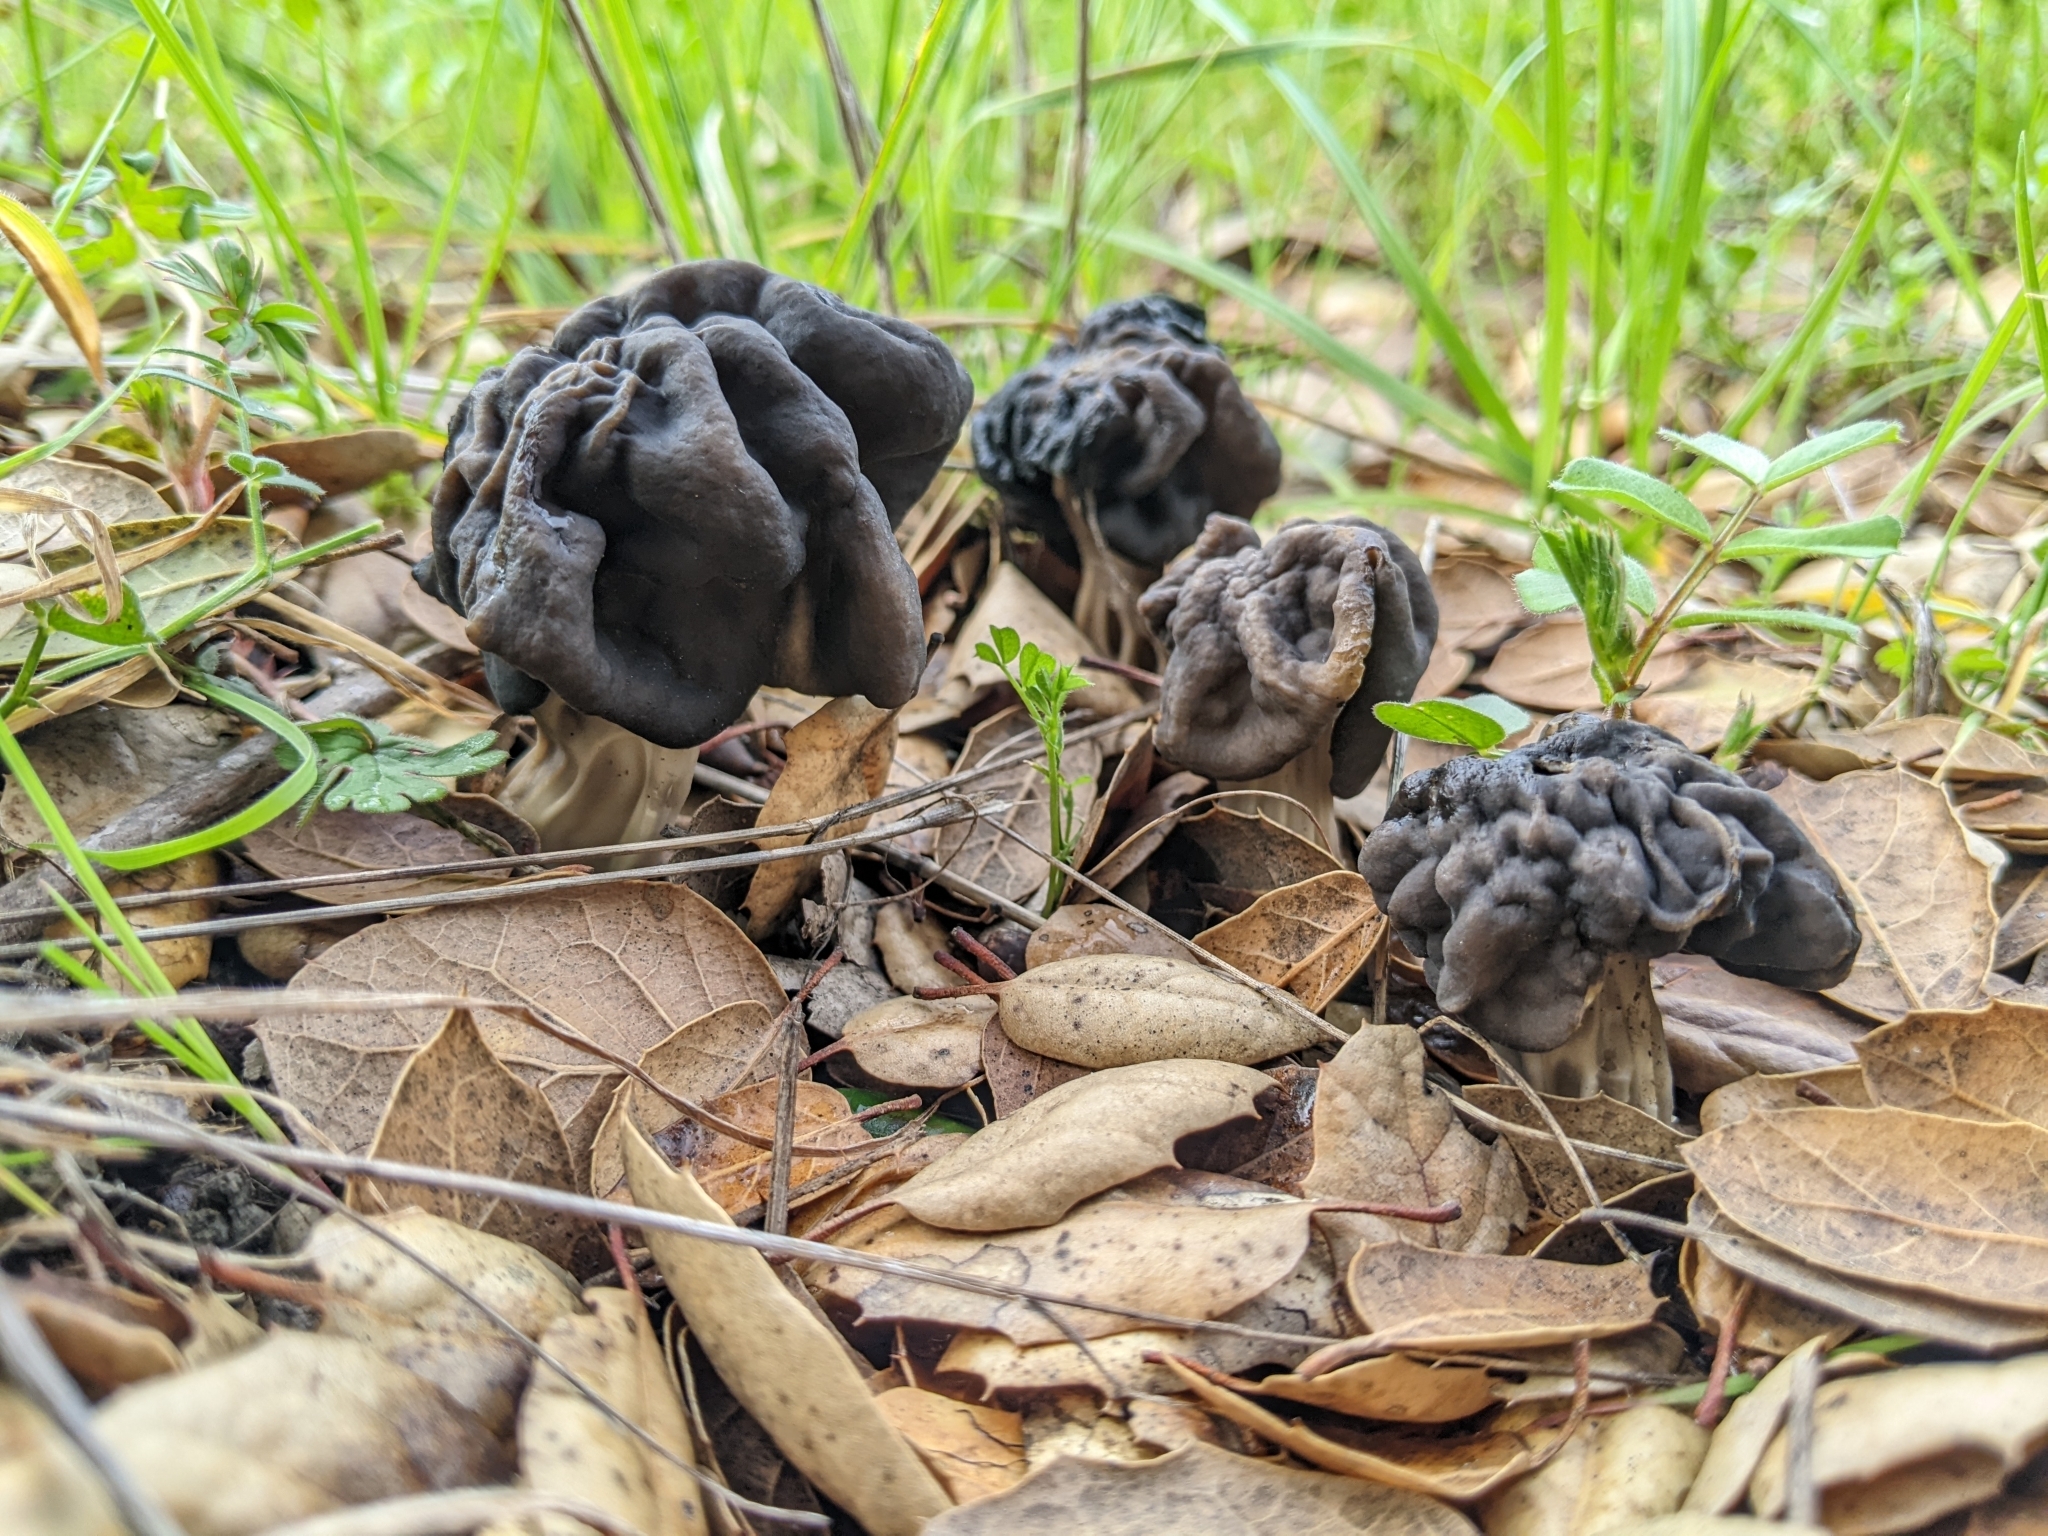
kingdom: Fungi
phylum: Ascomycota
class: Pezizomycetes
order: Pezizales
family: Helvellaceae
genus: Helvella
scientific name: Helvella dryophila
